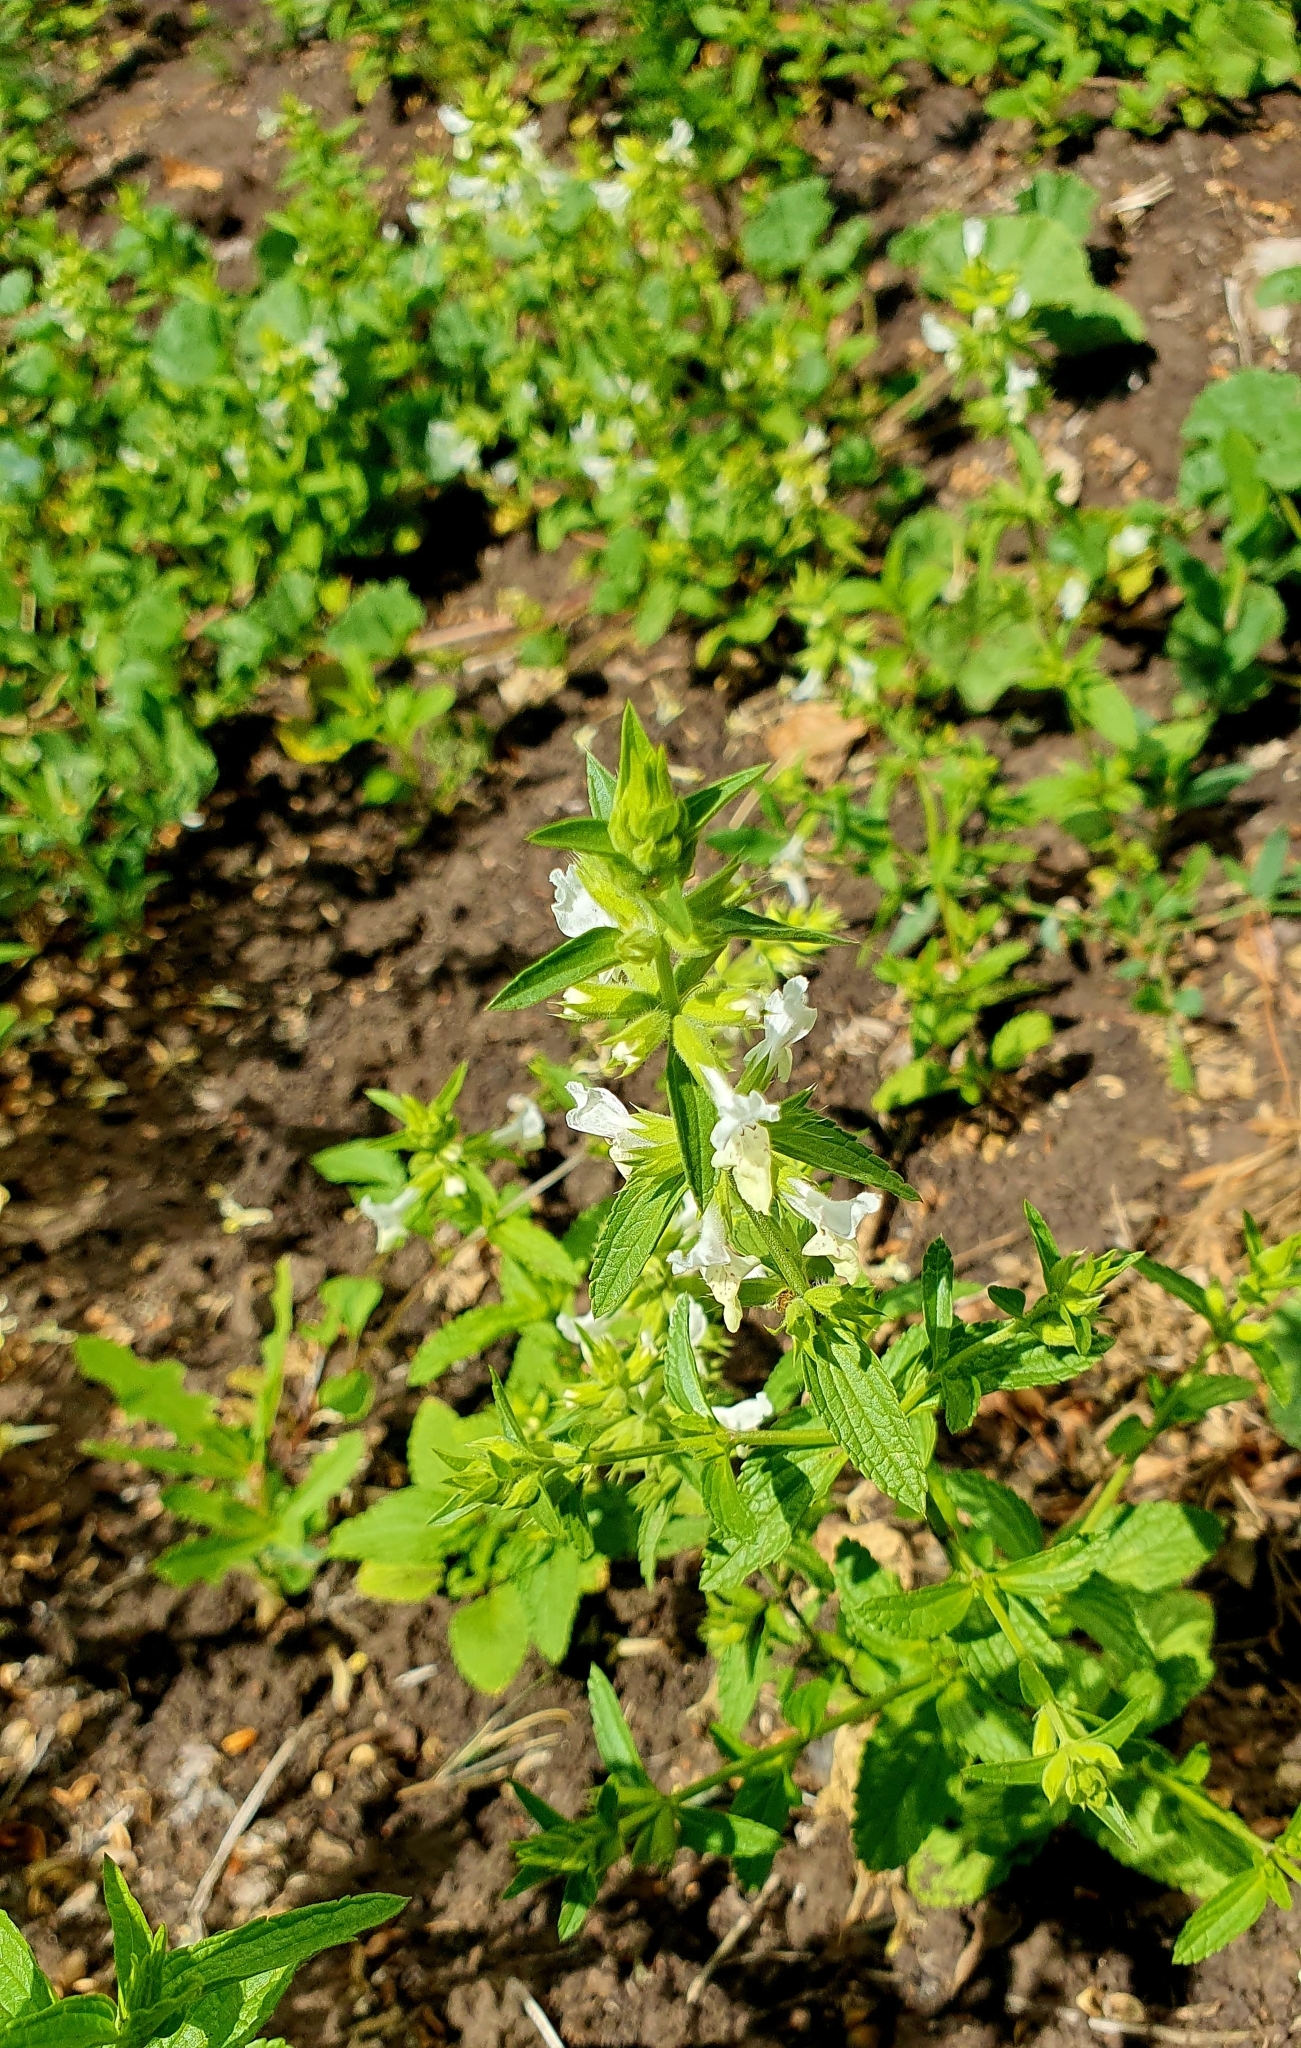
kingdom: Plantae
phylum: Tracheophyta
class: Magnoliopsida
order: Lamiales
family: Lamiaceae
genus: Stachys
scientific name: Stachys annua
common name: Annual yellow-woundwort
